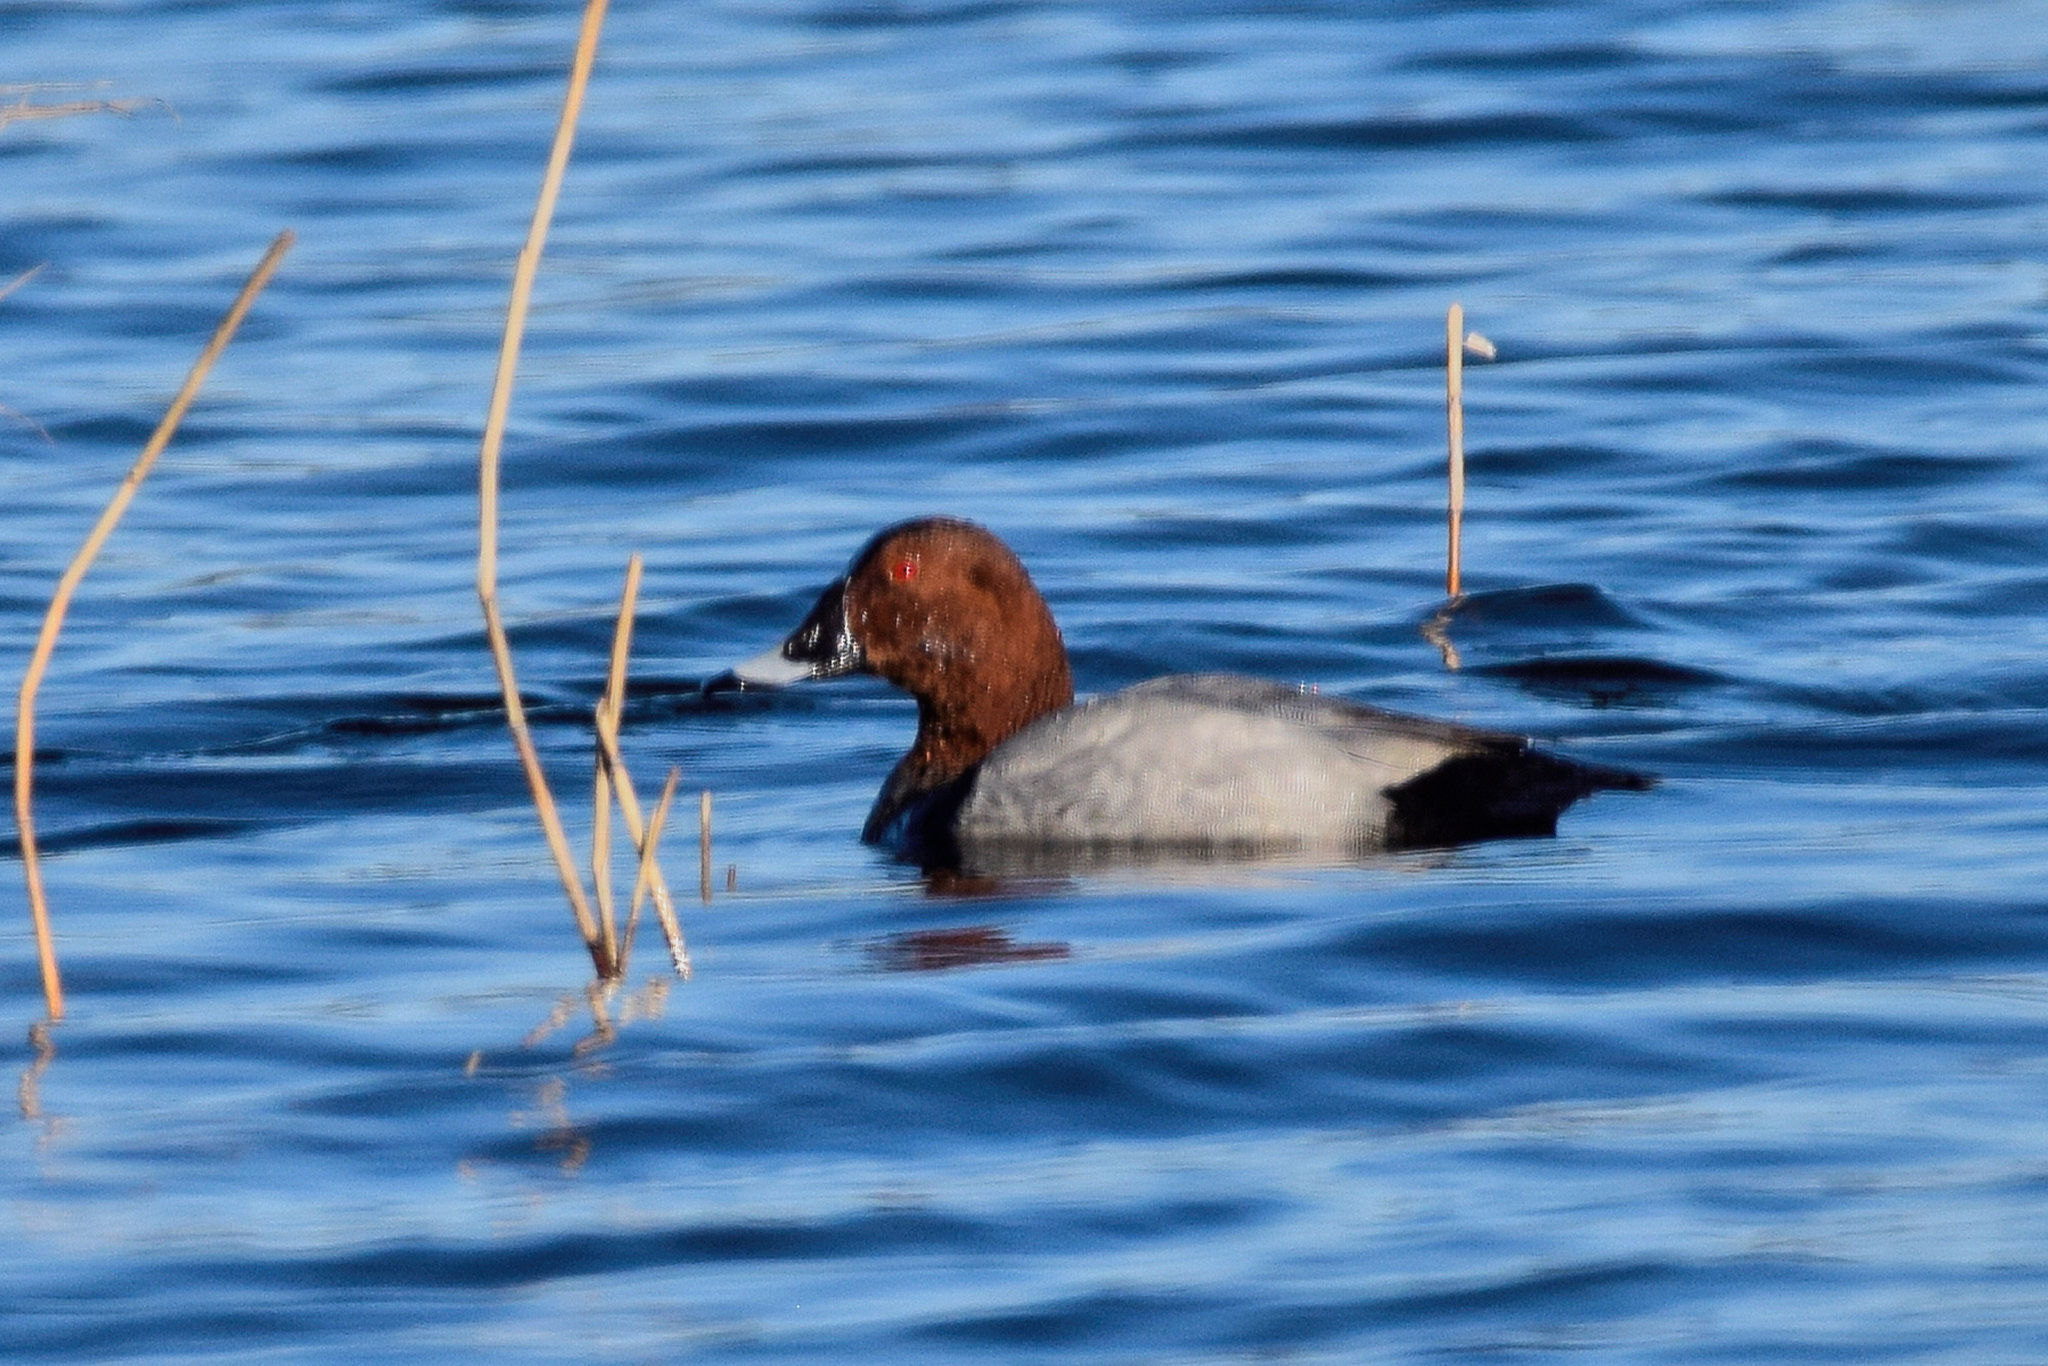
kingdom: Animalia
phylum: Chordata
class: Aves
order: Anseriformes
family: Anatidae
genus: Aythya
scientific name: Aythya ferina
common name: Common pochard
